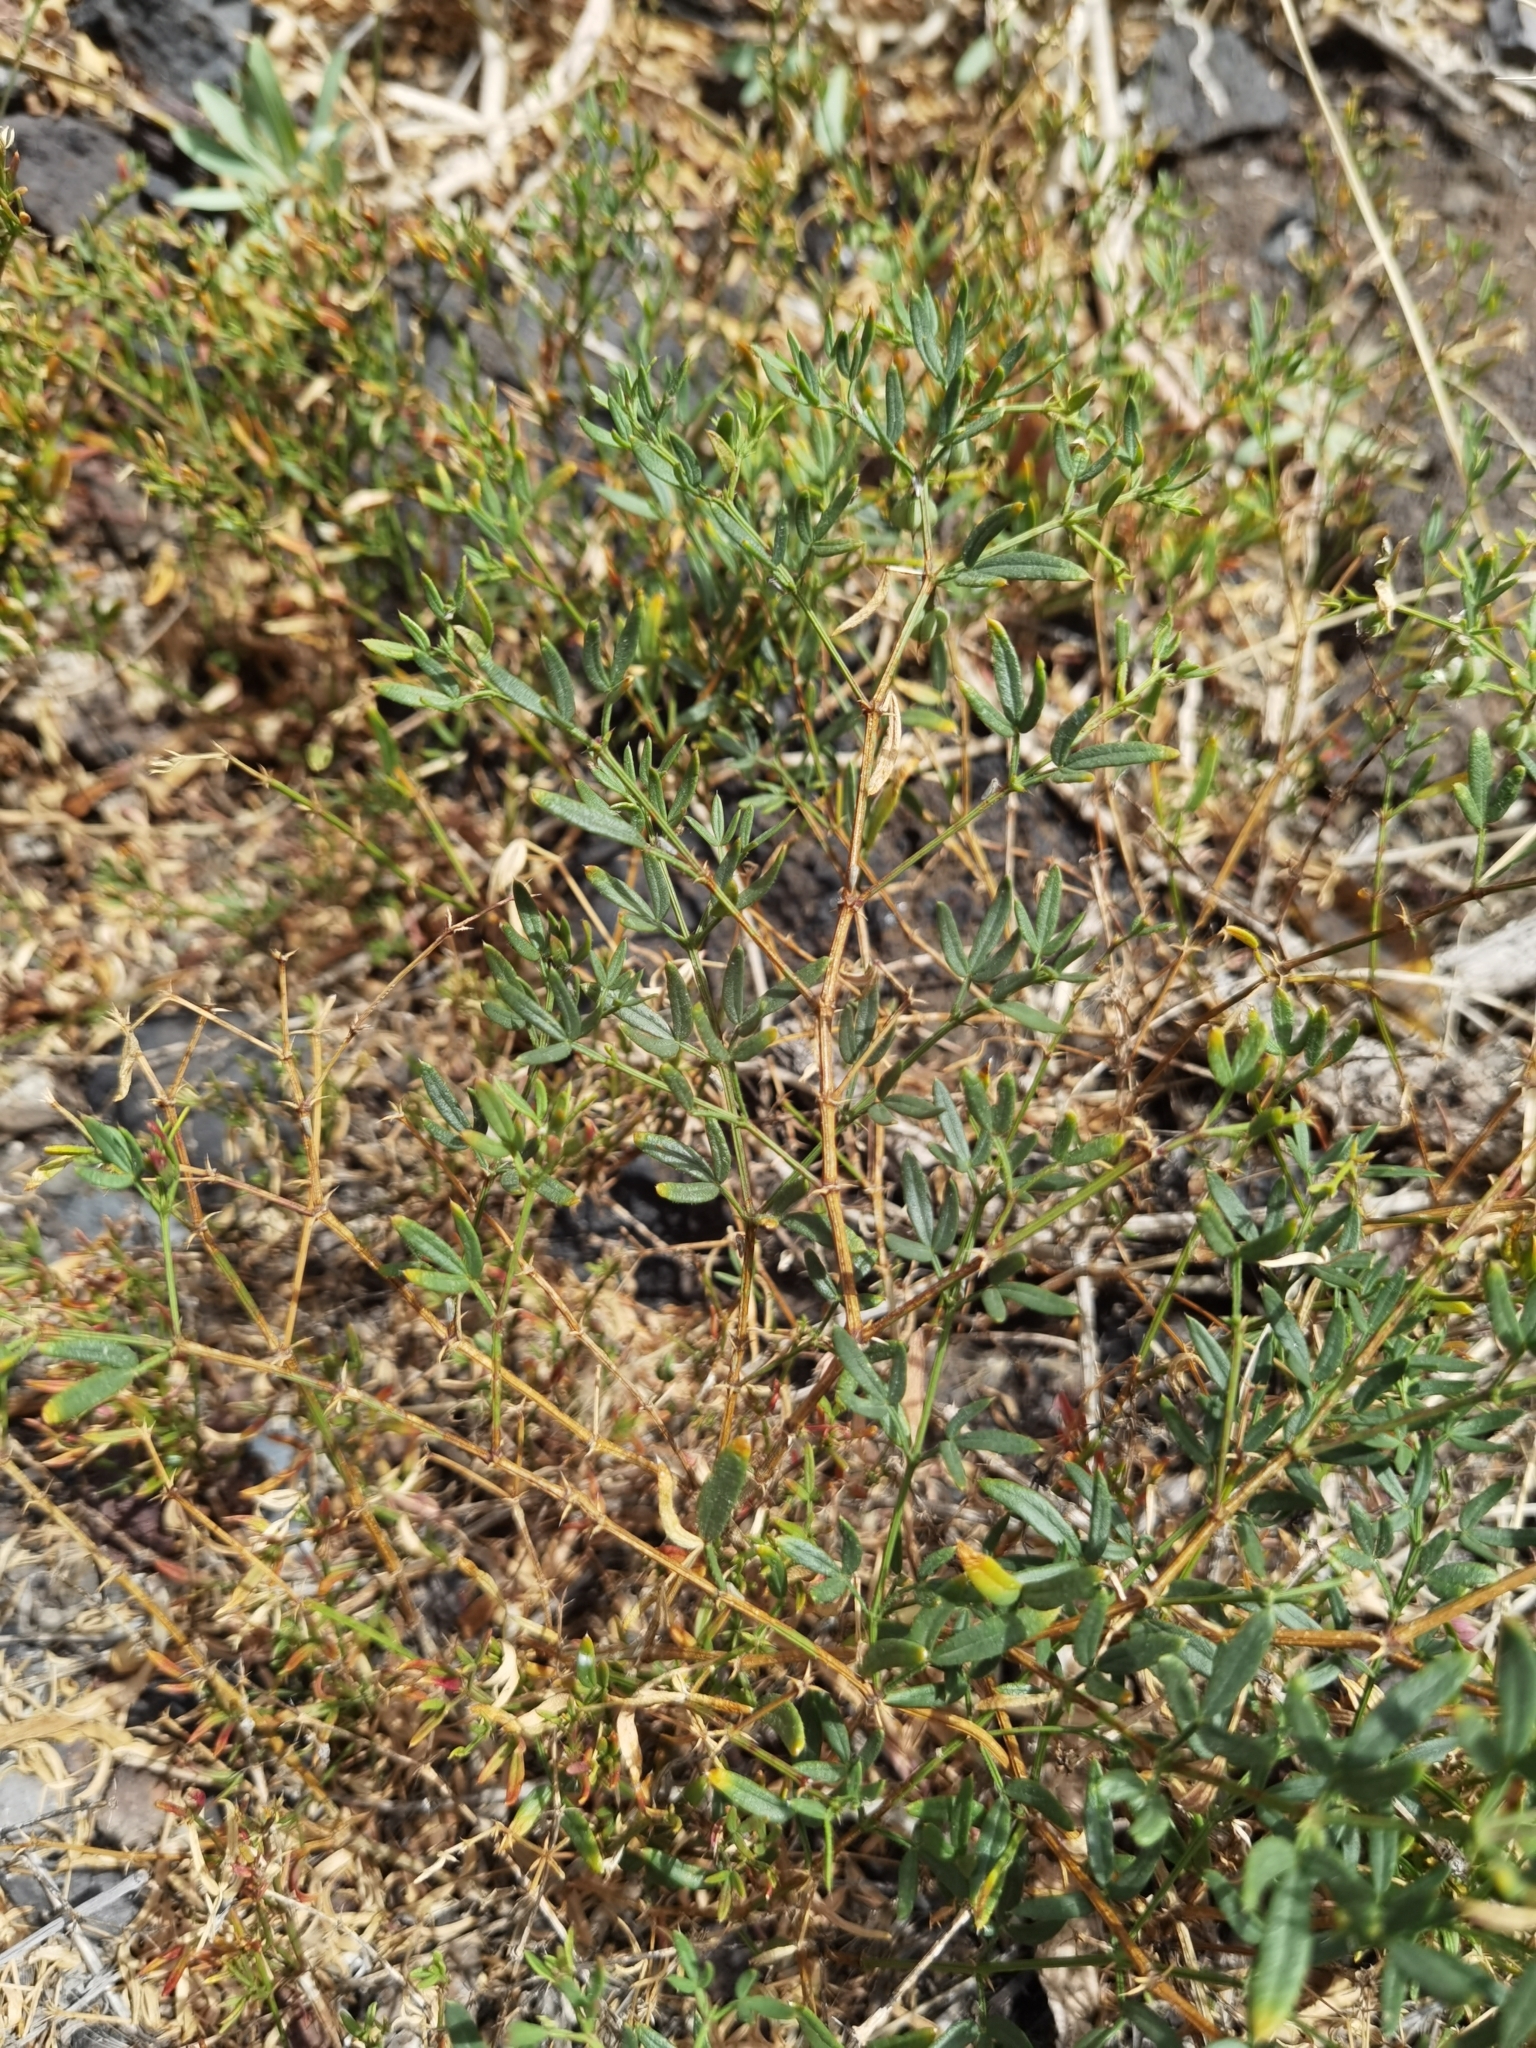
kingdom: Plantae
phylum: Tracheophyta
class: Magnoliopsida
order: Zygophyllales
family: Zygophyllaceae
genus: Fagonia
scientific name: Fagonia cretica
